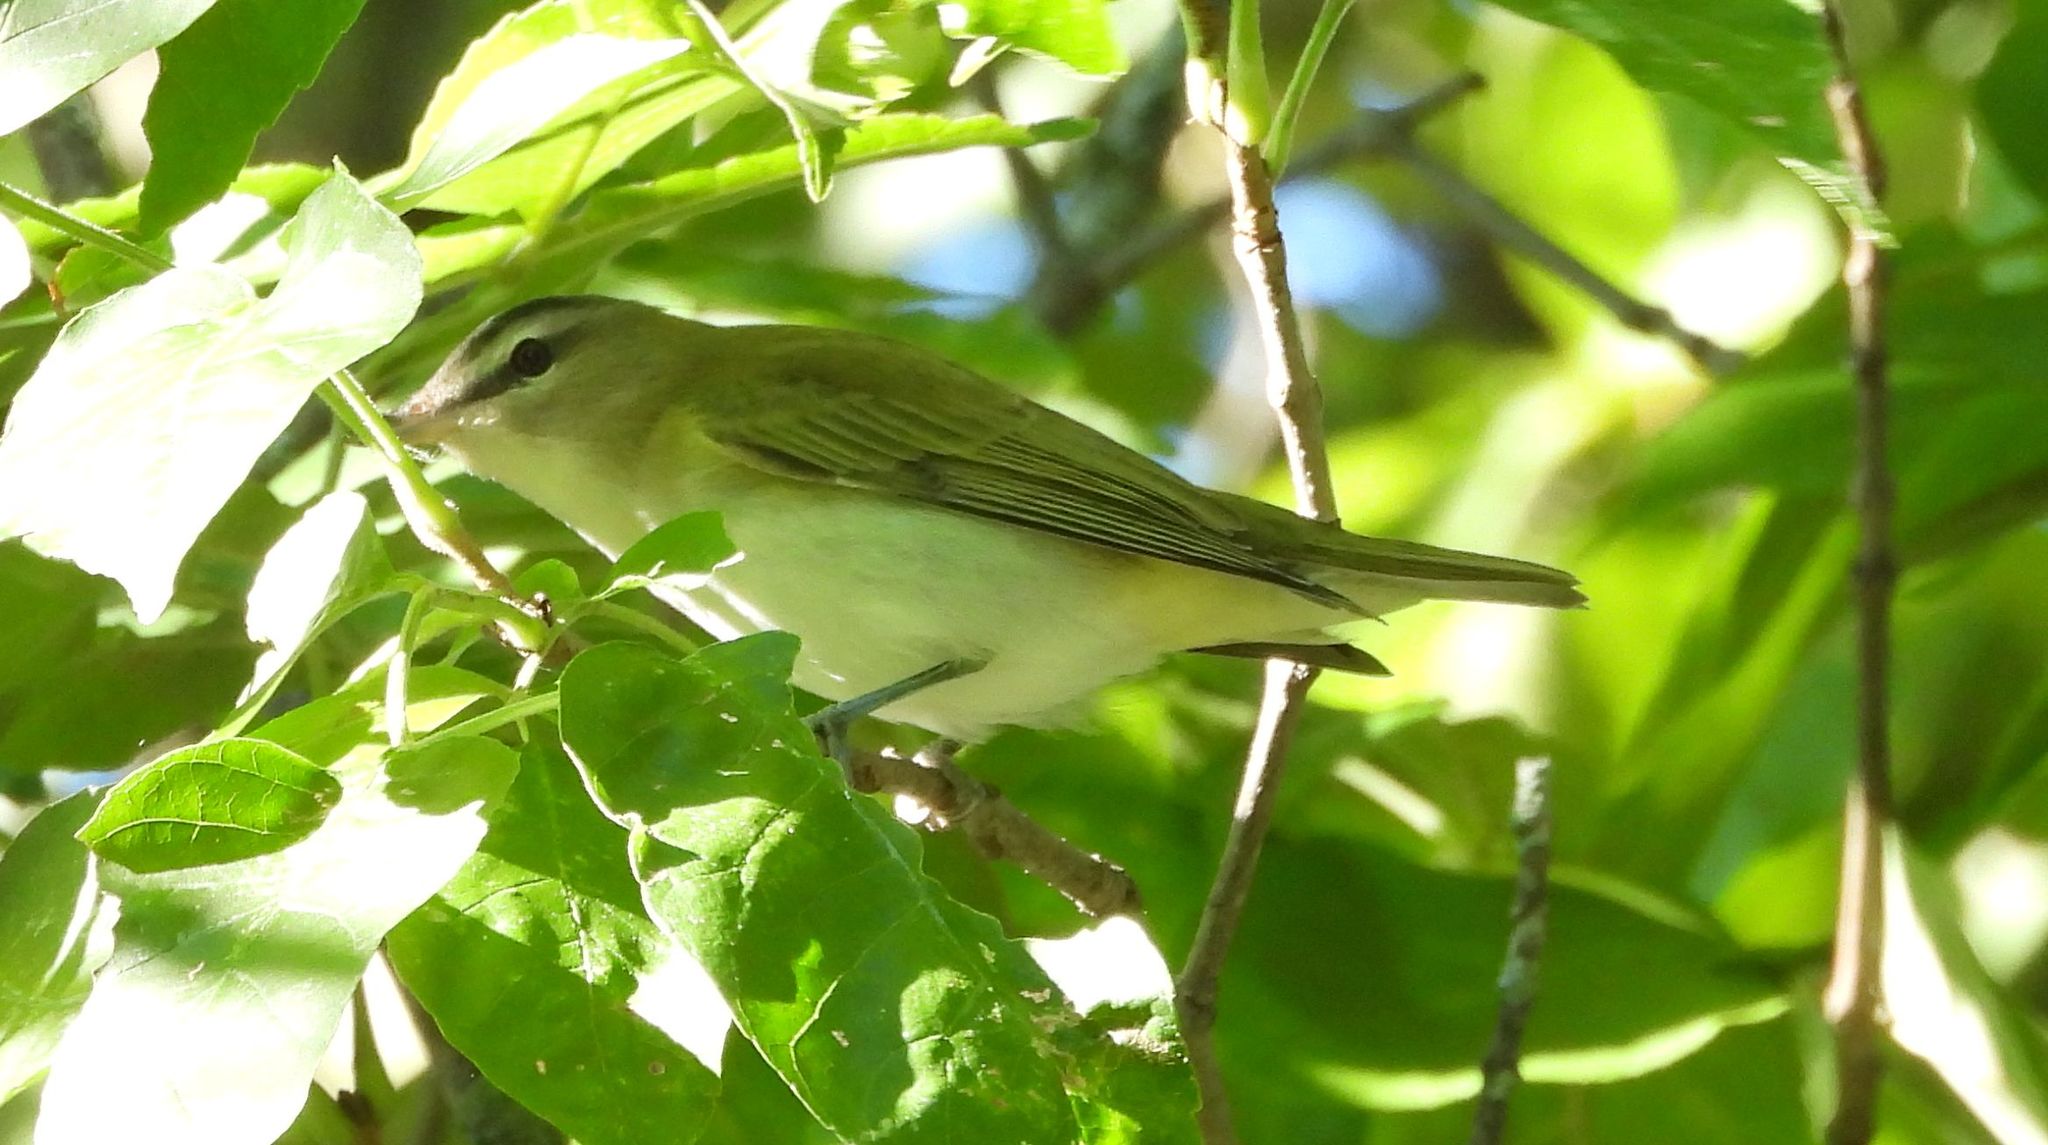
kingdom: Animalia
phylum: Chordata
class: Aves
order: Passeriformes
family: Vireonidae
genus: Vireo
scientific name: Vireo olivaceus
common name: Red-eyed vireo
